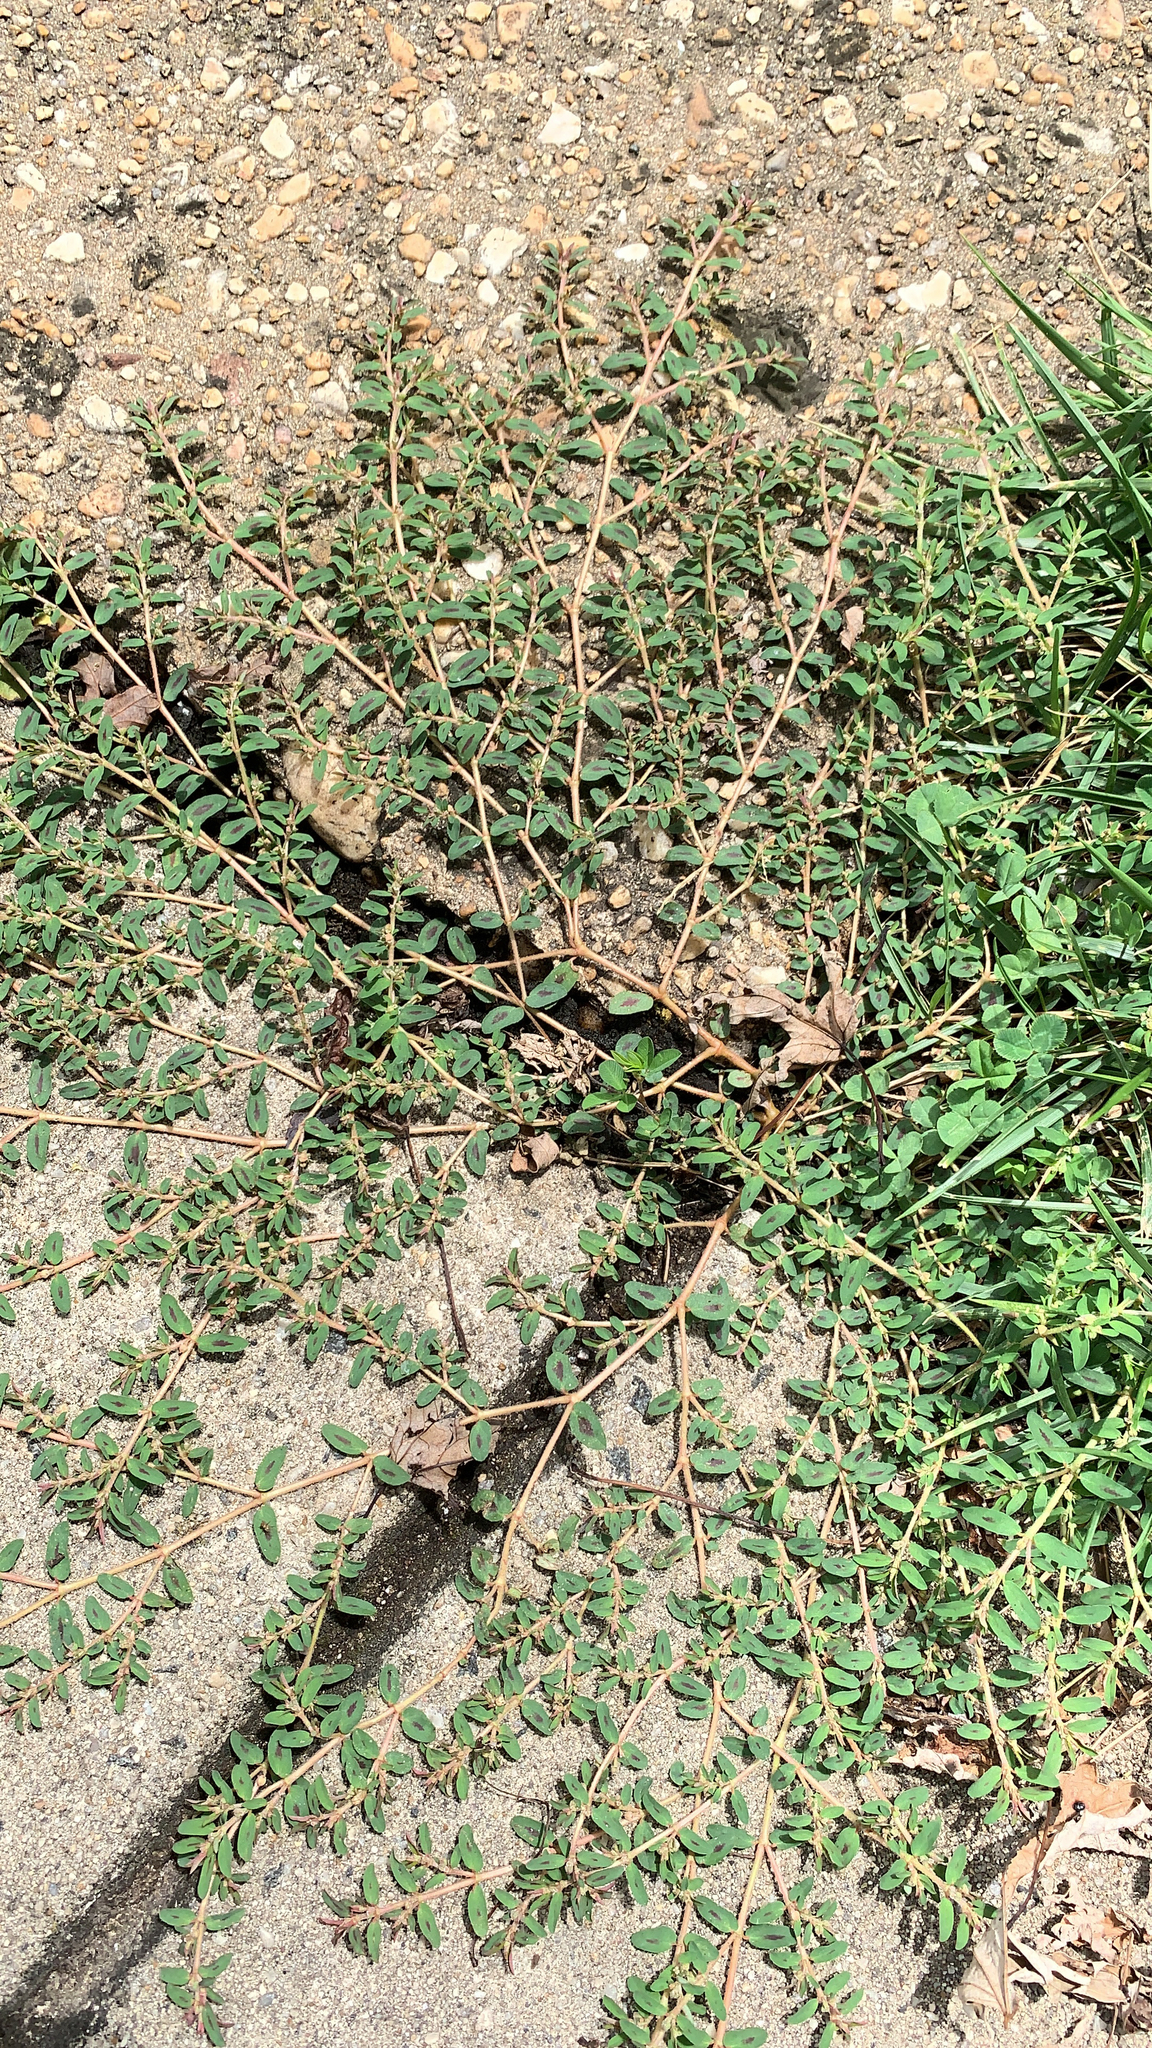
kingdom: Plantae
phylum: Tracheophyta
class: Magnoliopsida
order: Malpighiales
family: Euphorbiaceae
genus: Euphorbia
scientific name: Euphorbia maculata
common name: Spotted spurge
